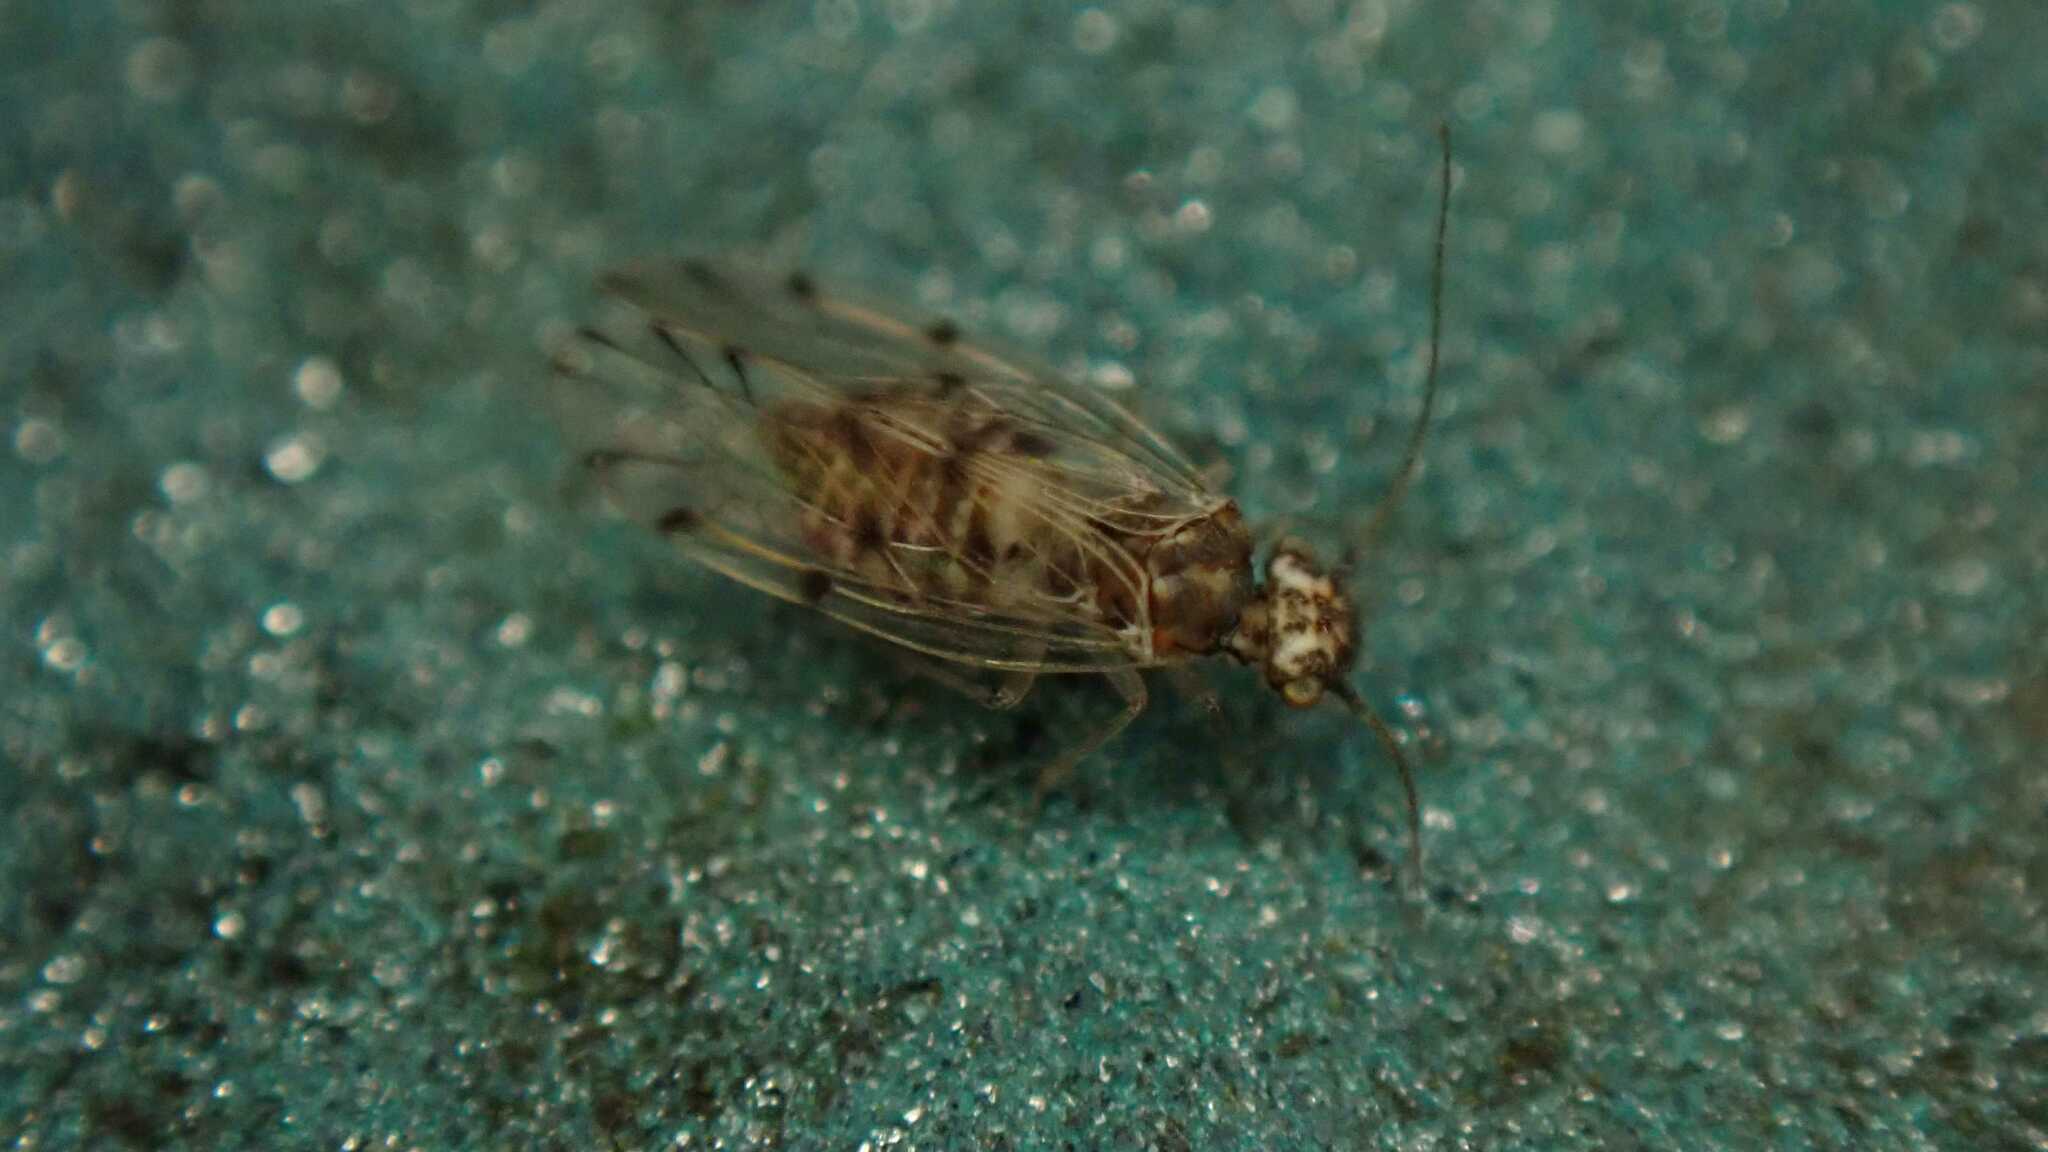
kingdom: Animalia
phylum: Arthropoda
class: Insecta
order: Psocodea
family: Ectopsocidae
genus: Ectopsocus
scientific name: Ectopsocus petersi
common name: Medium-sized bark louse
